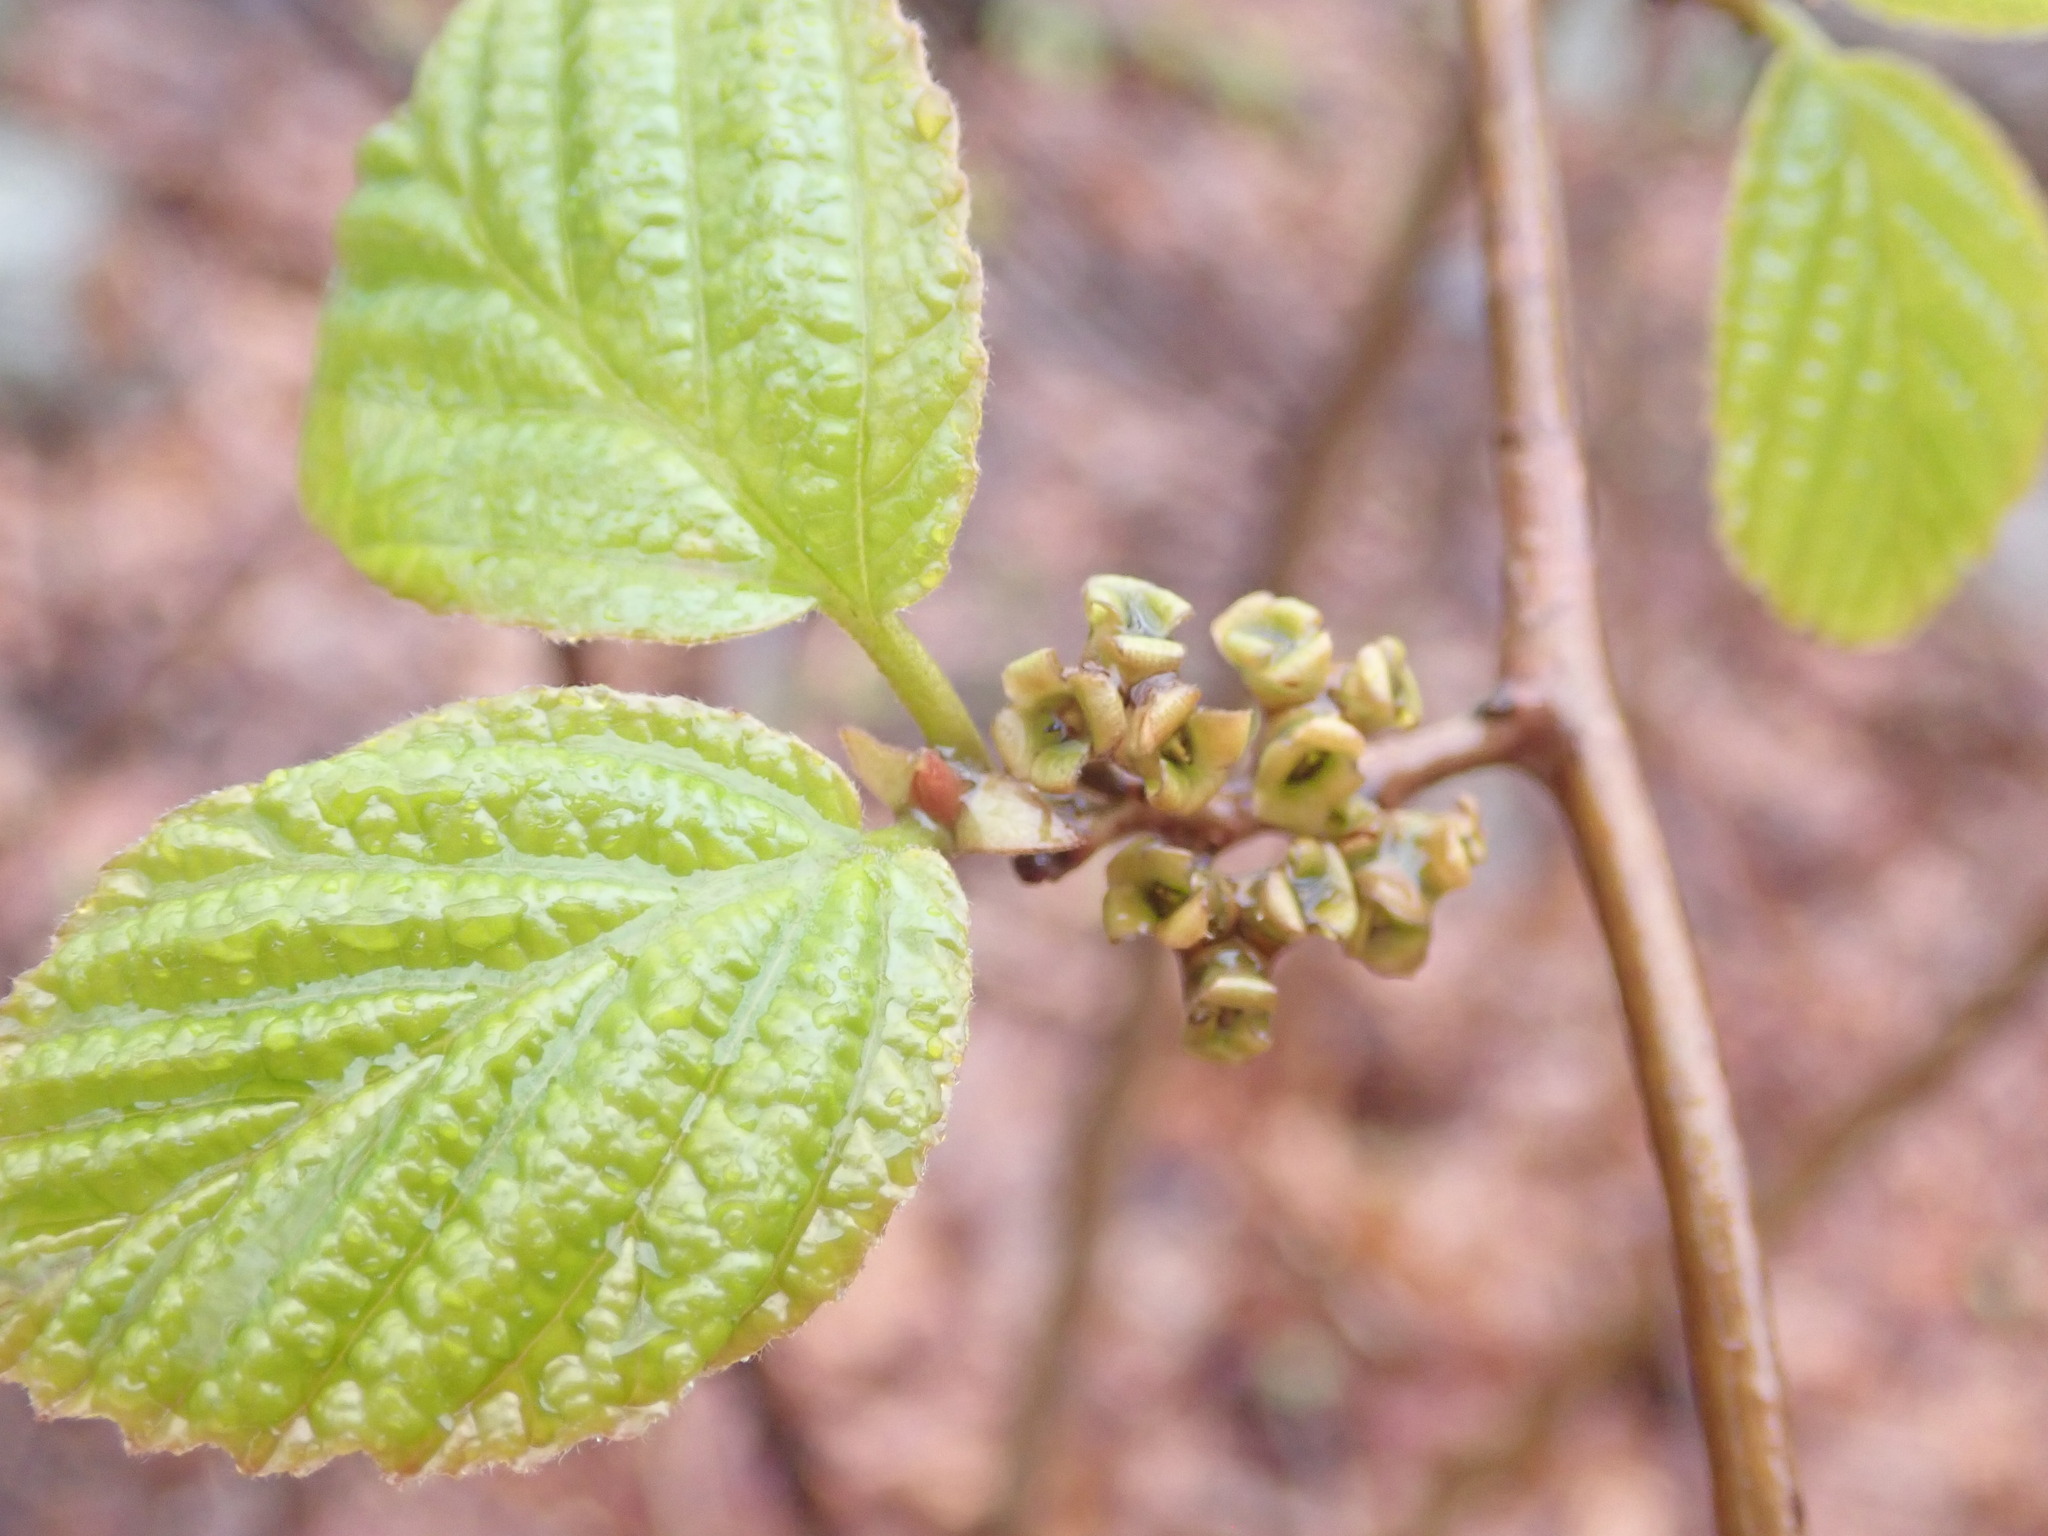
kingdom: Plantae
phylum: Tracheophyta
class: Magnoliopsida
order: Saxifragales
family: Hamamelidaceae
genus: Hamamelis
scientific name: Hamamelis virginiana
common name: Witch-hazel
